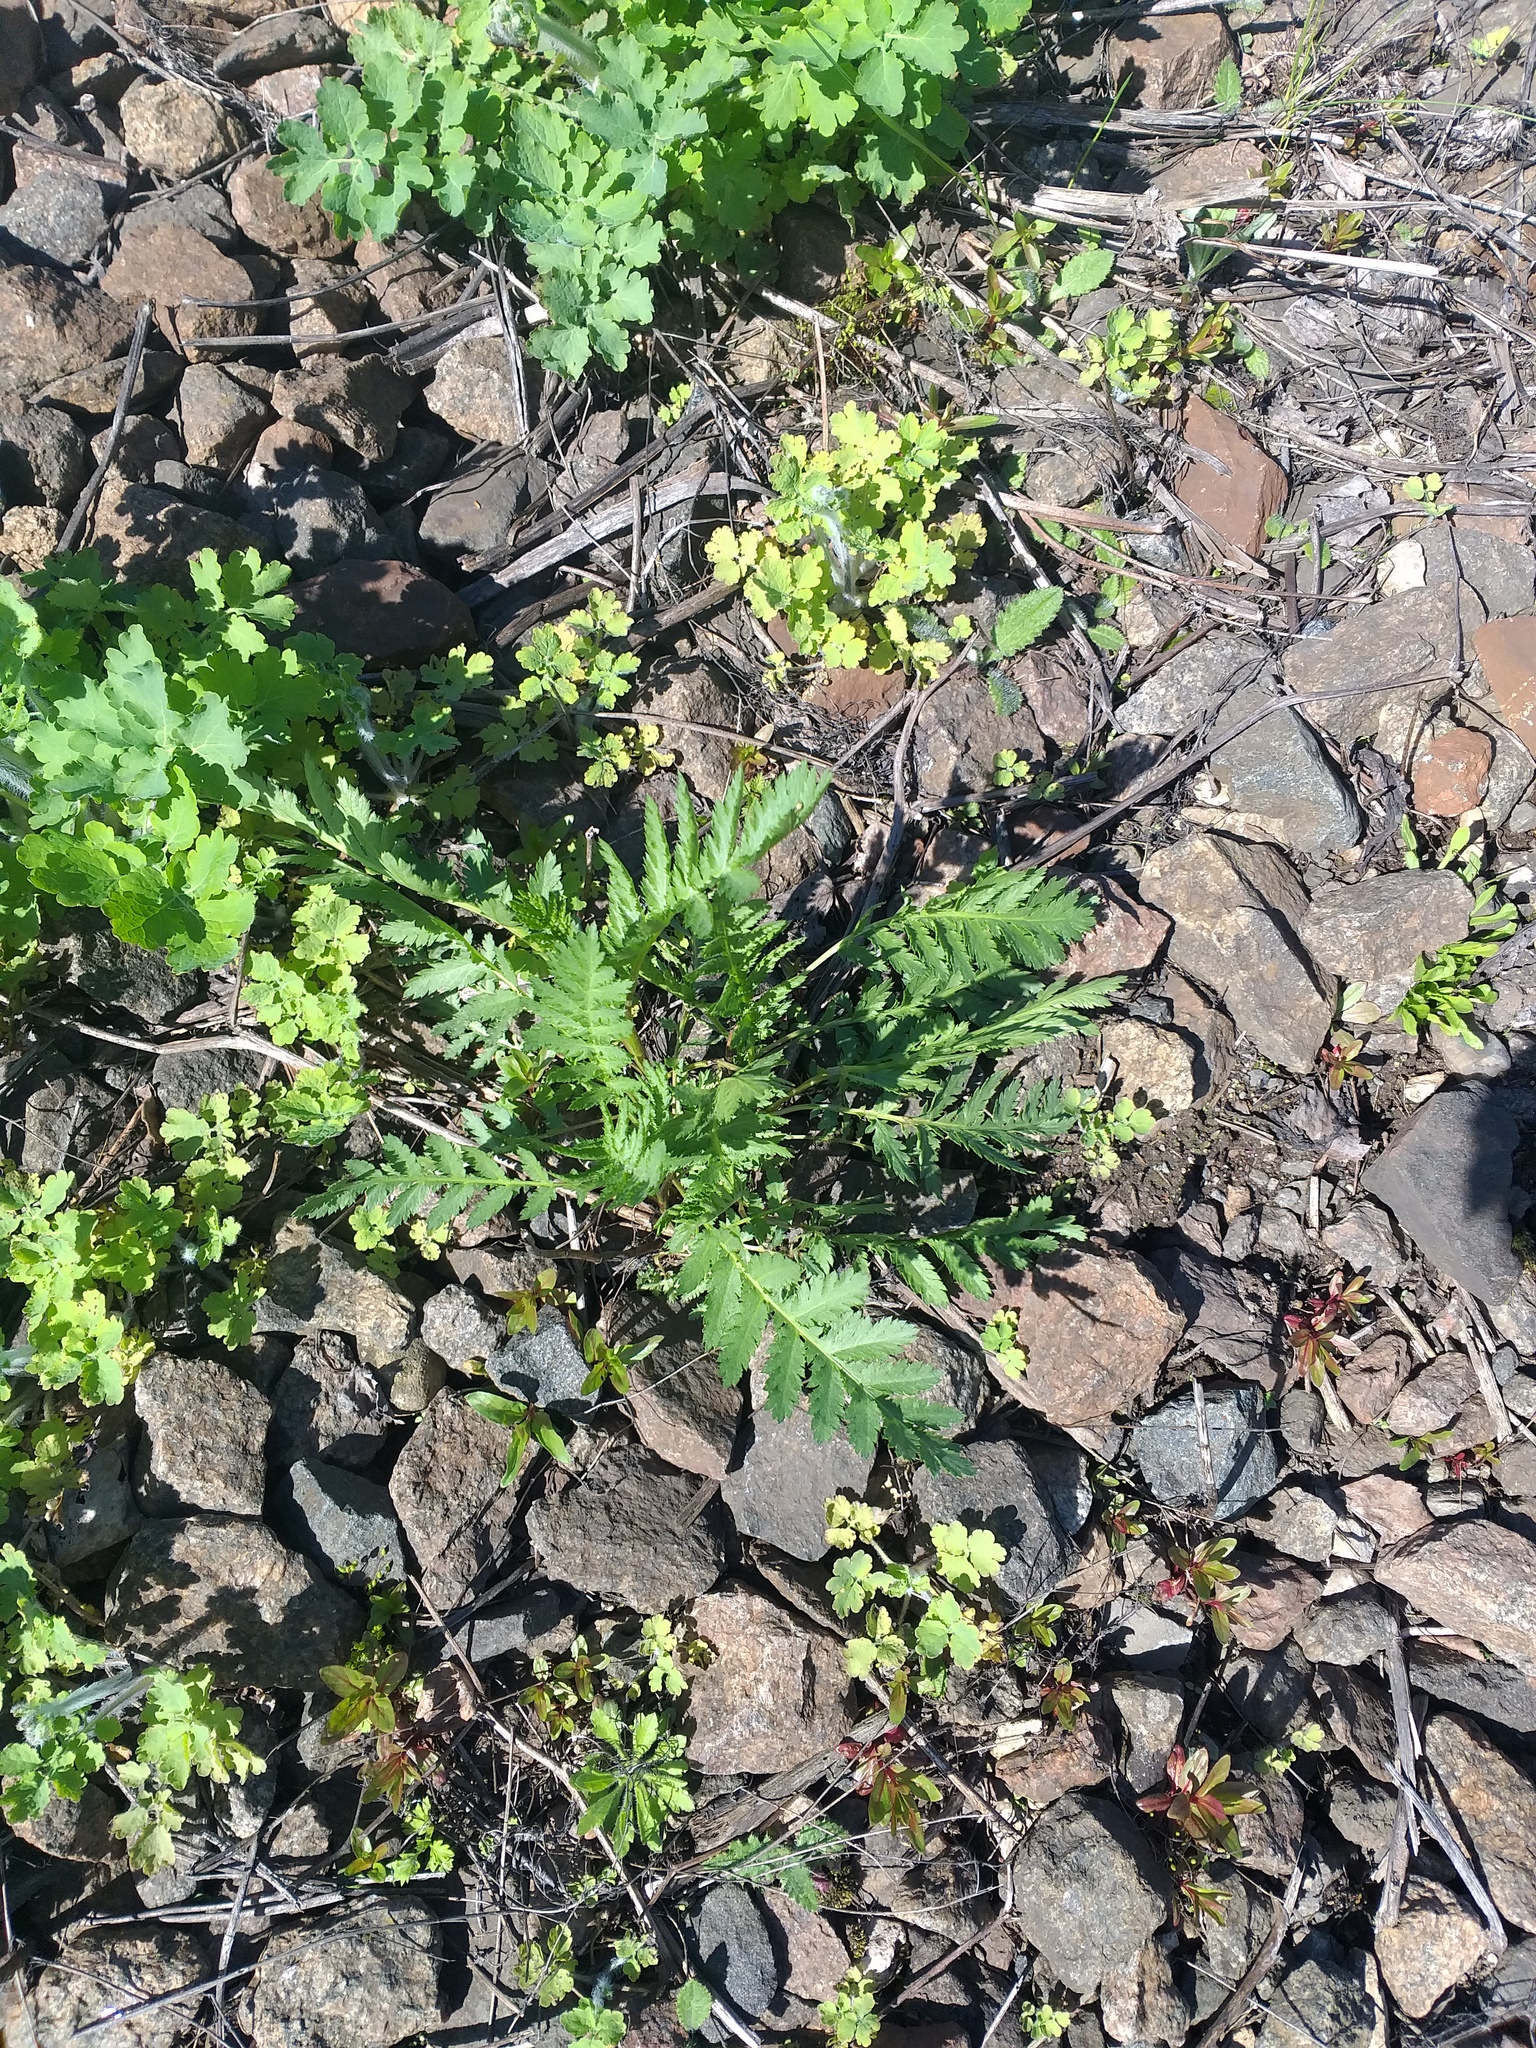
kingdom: Plantae
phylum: Tracheophyta
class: Magnoliopsida
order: Asterales
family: Asteraceae
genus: Tanacetum
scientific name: Tanacetum vulgare
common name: Common tansy
